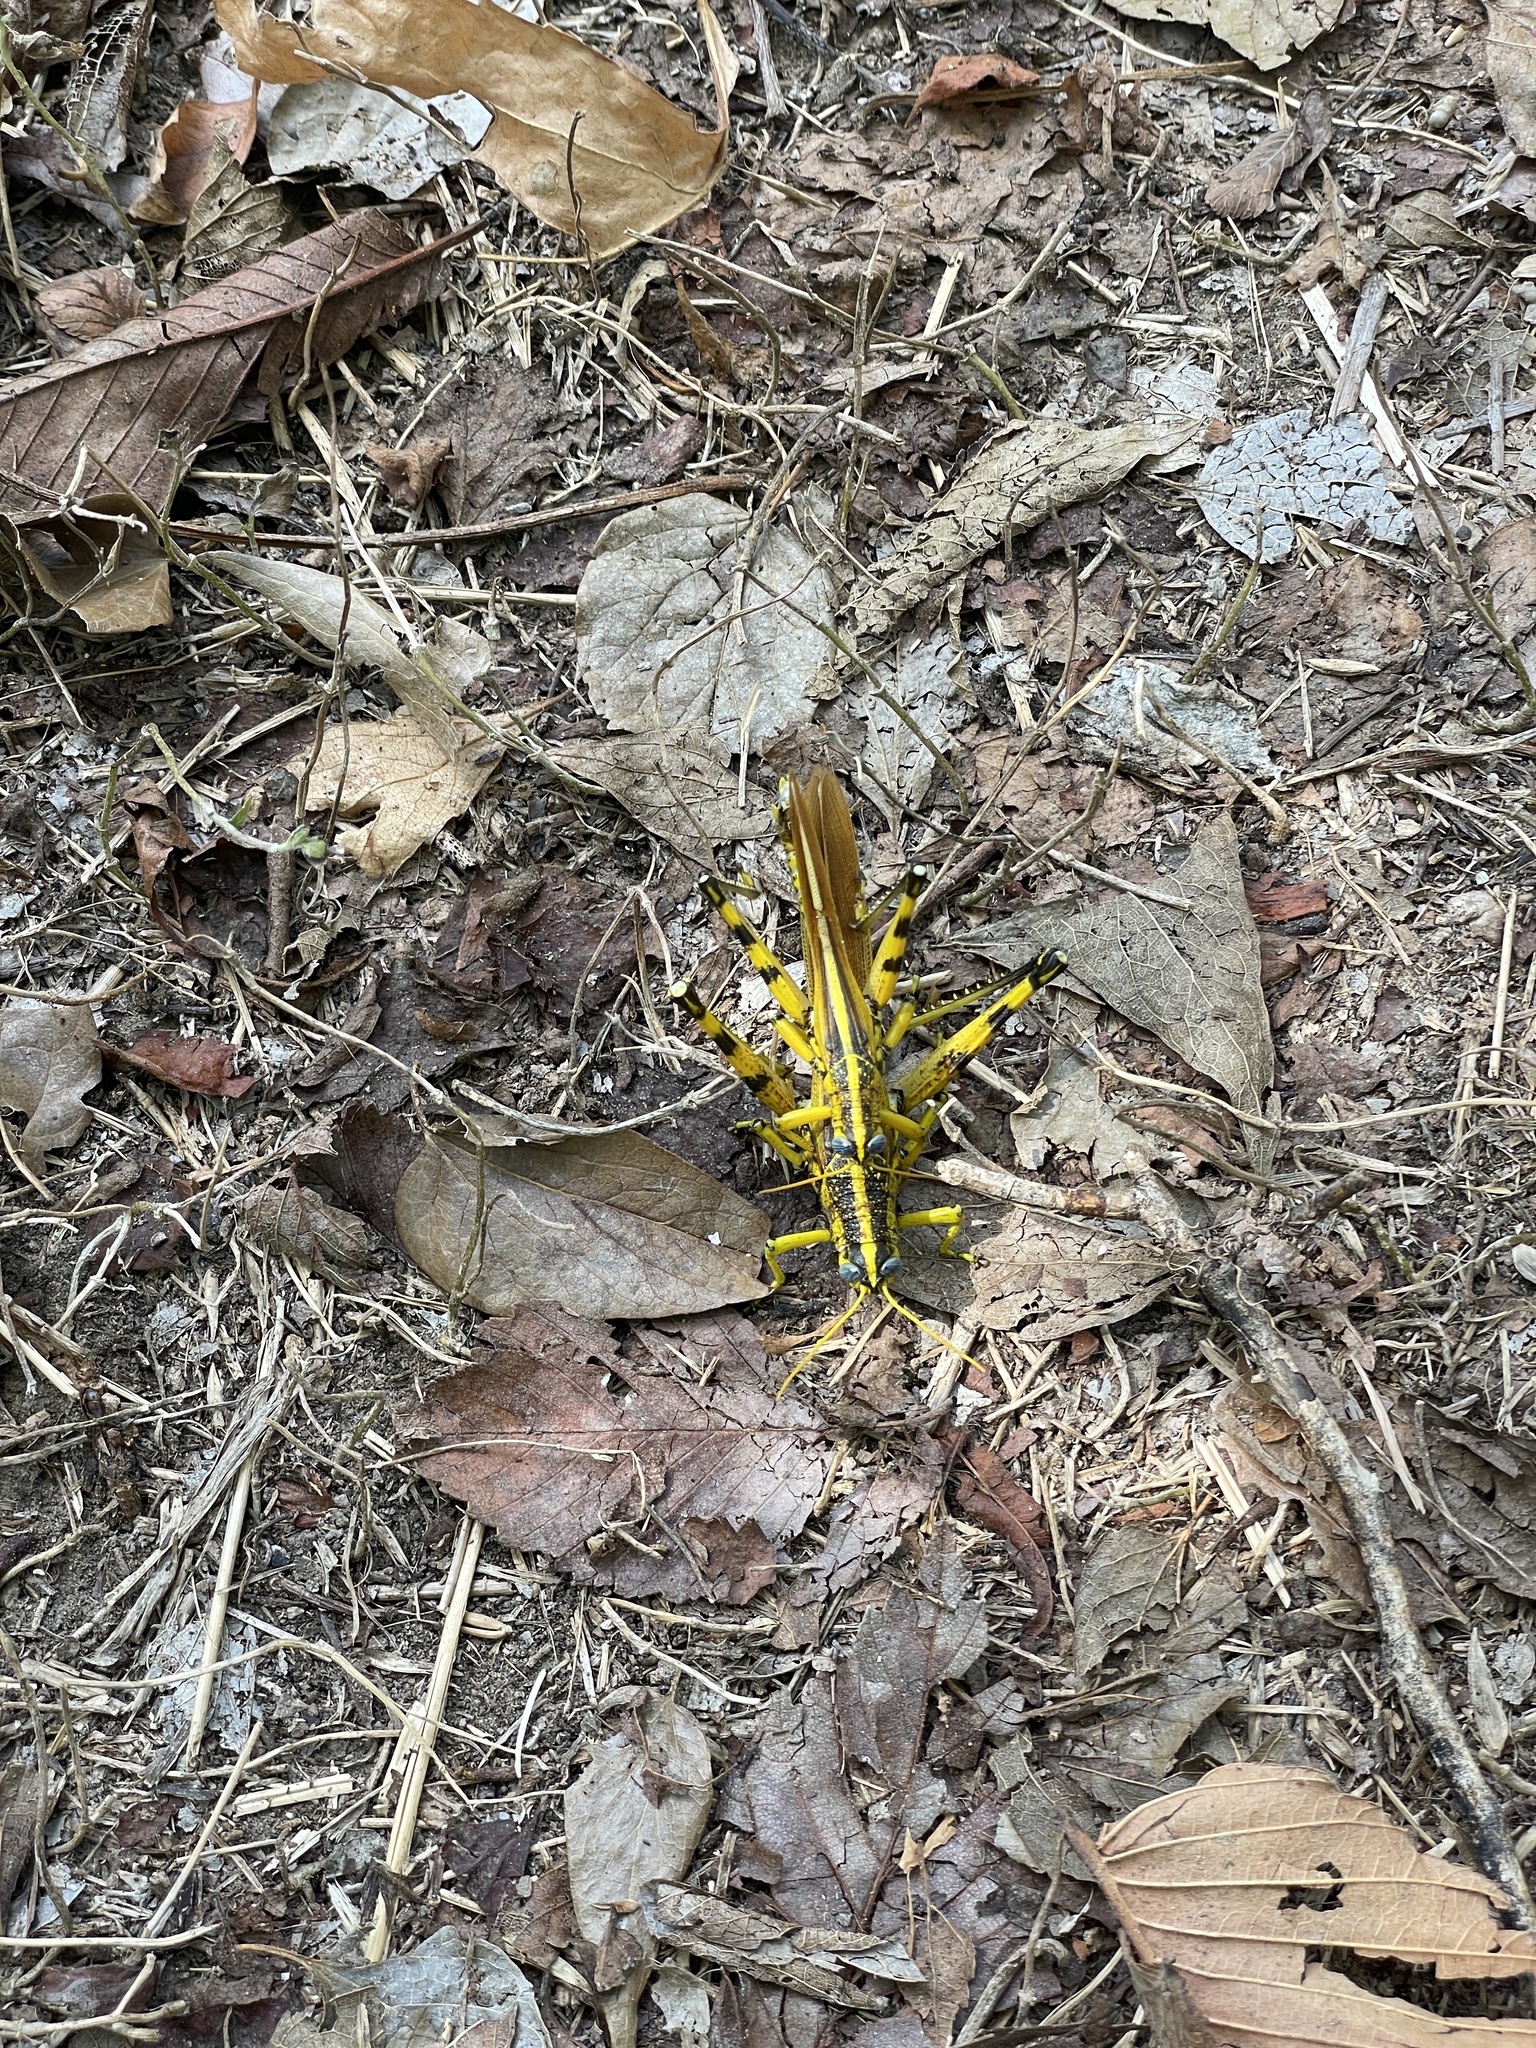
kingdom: Animalia
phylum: Arthropoda
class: Insecta
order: Orthoptera
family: Acrididae
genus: Schistocerca
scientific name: Schistocerca lineata
